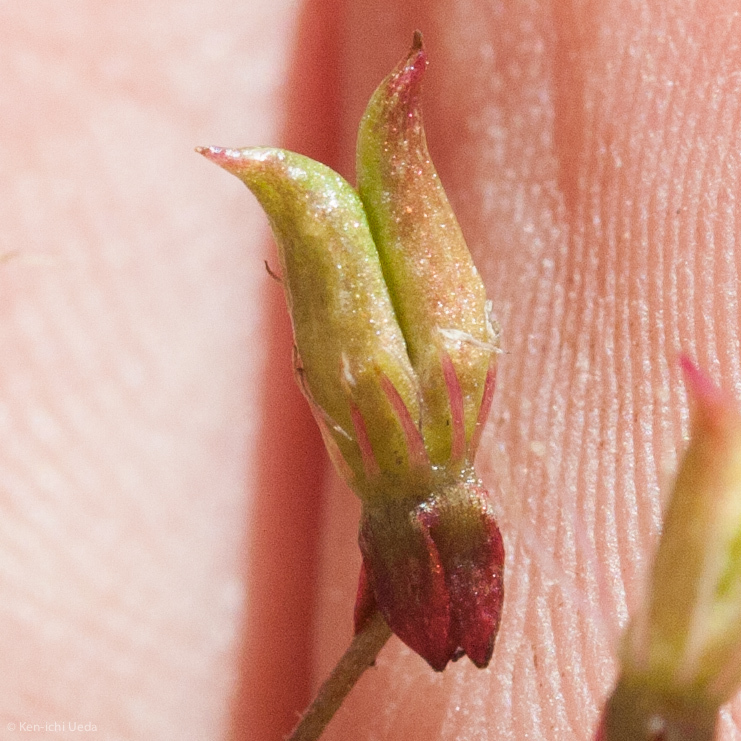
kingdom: Plantae
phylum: Tracheophyta
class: Magnoliopsida
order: Saxifragales
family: Saxifragaceae
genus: Micranthes
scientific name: Micranthes petiolaris
